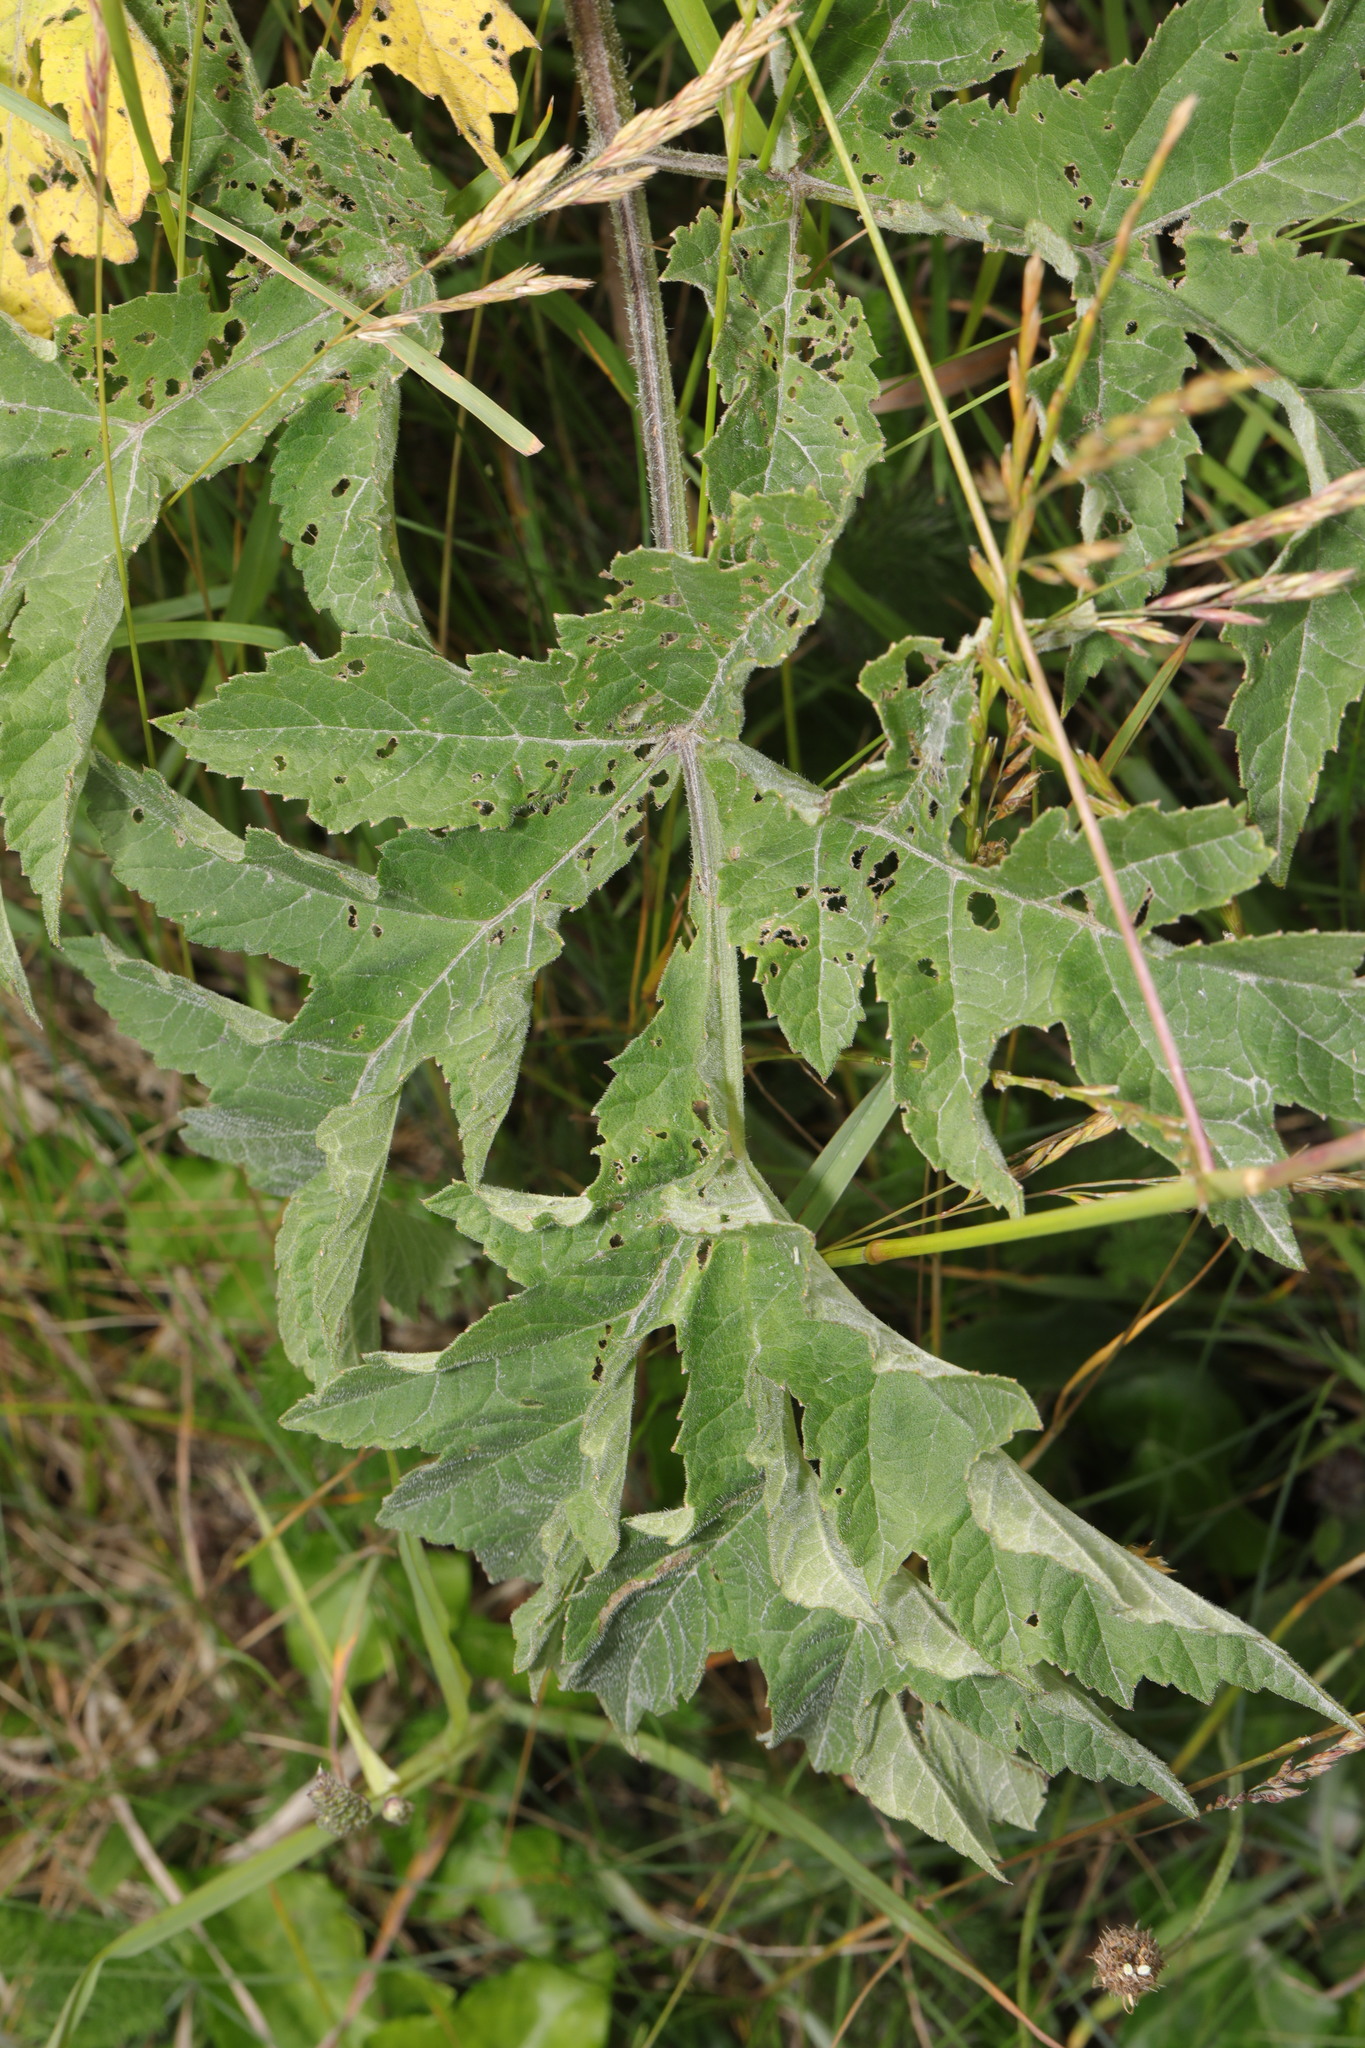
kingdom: Plantae
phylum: Tracheophyta
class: Magnoliopsida
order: Apiales
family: Apiaceae
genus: Heracleum
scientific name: Heracleum sphondylium
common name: Hogweed
